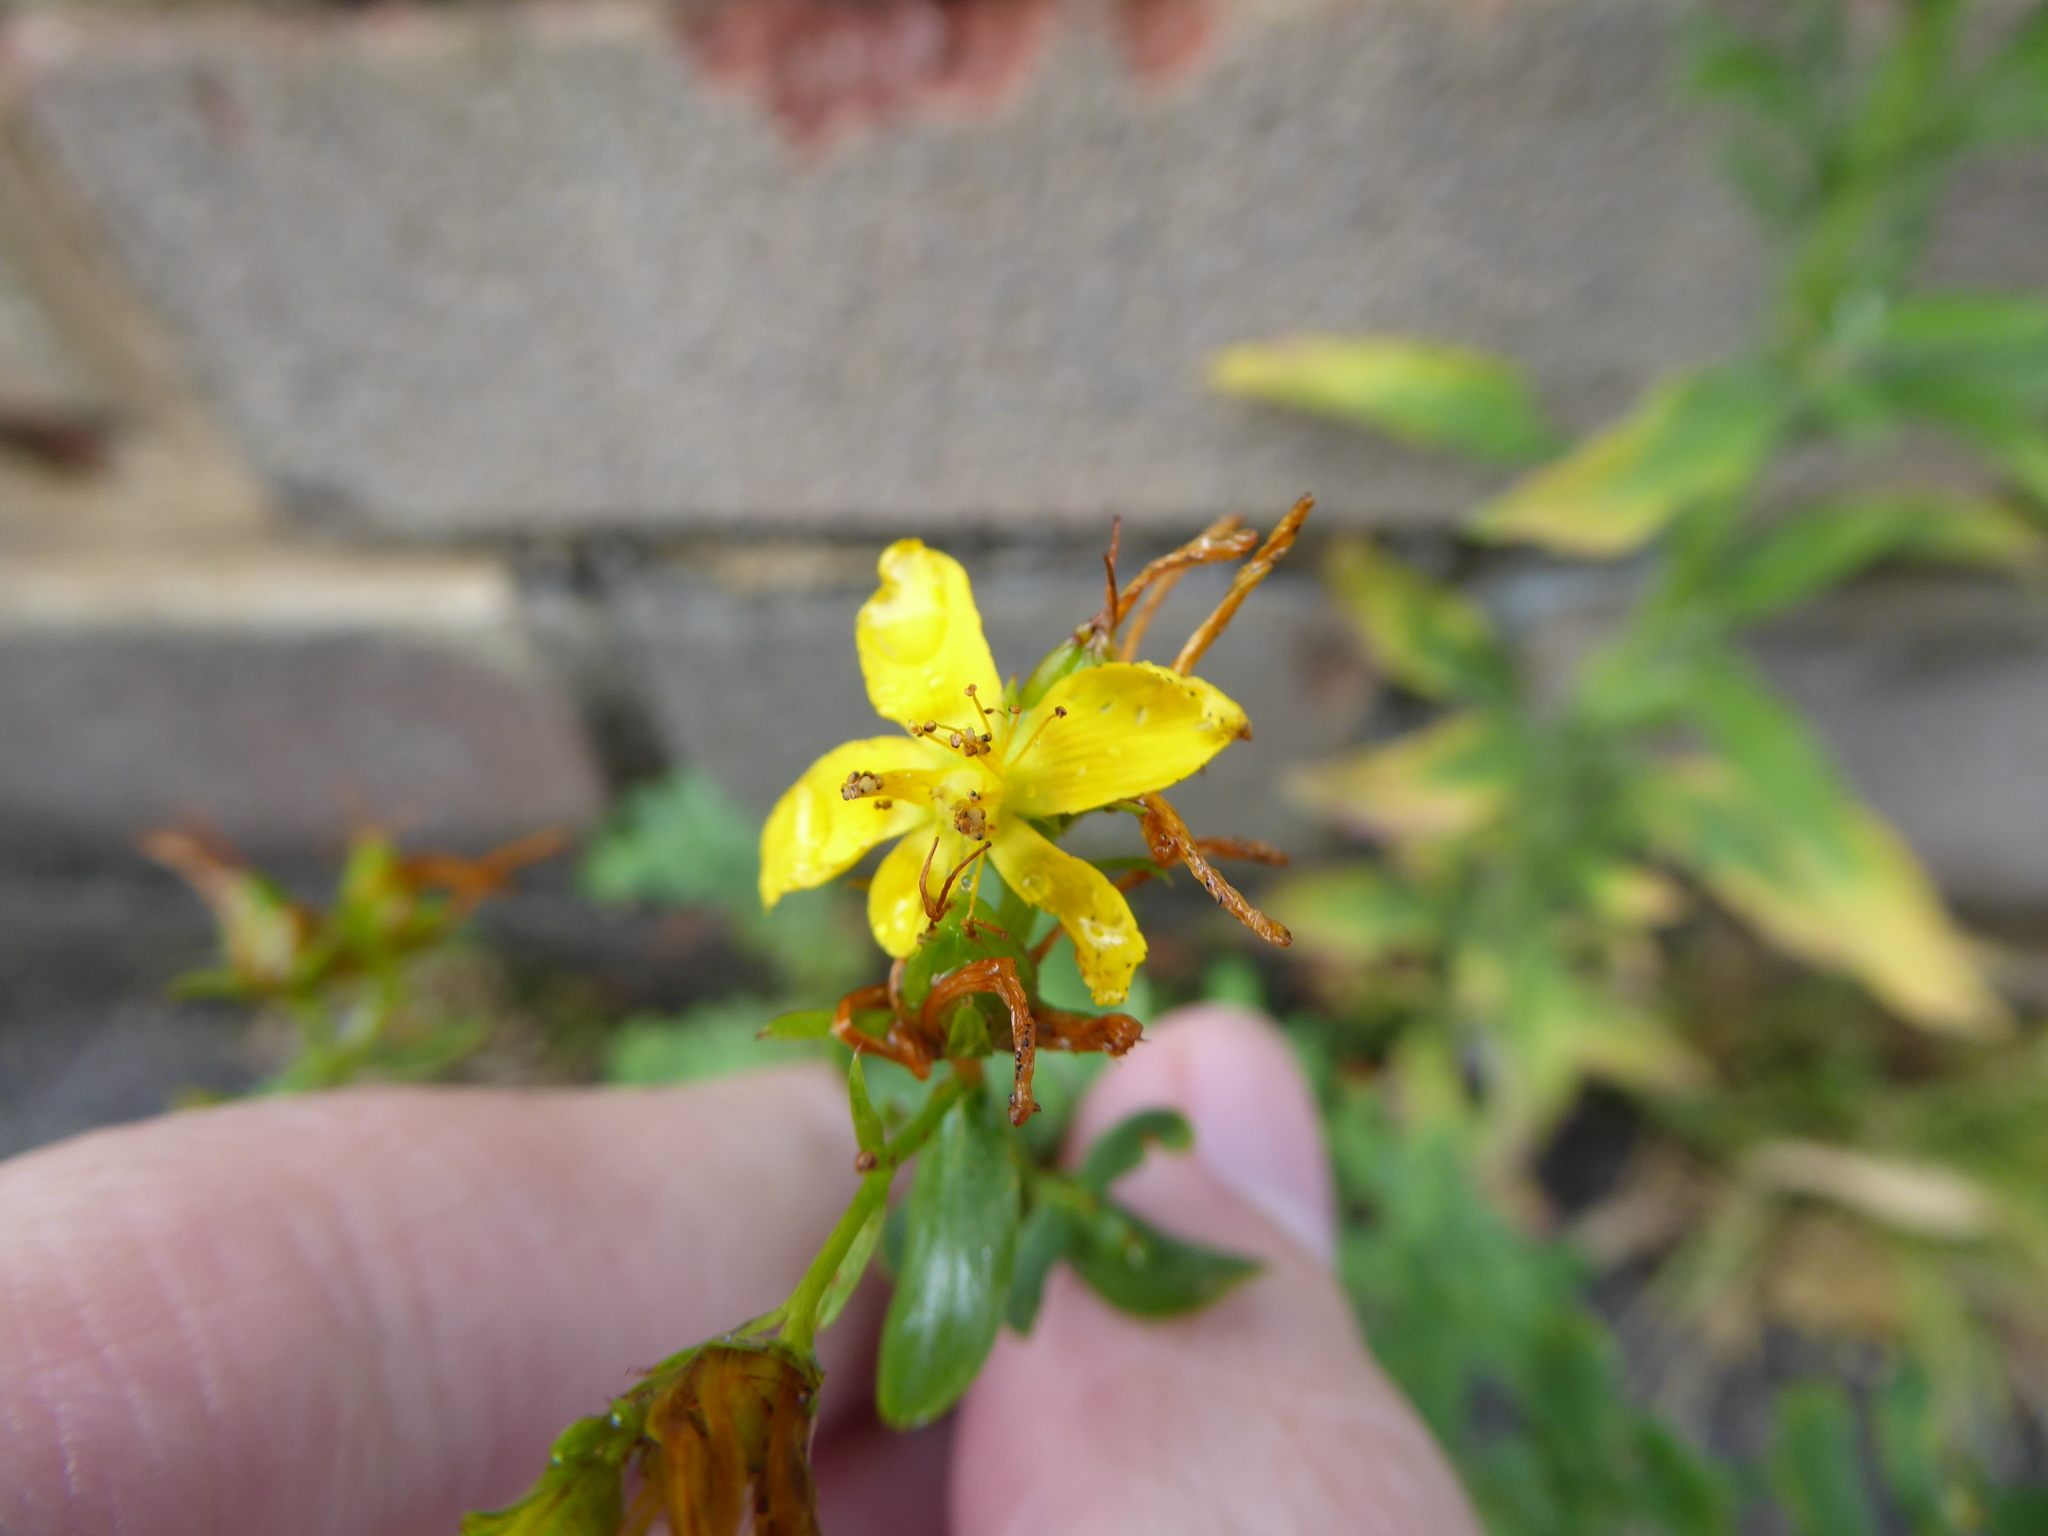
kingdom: Plantae
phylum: Tracheophyta
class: Magnoliopsida
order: Malpighiales
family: Hypericaceae
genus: Hypericum
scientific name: Hypericum perforatum
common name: Common st. johnswort
